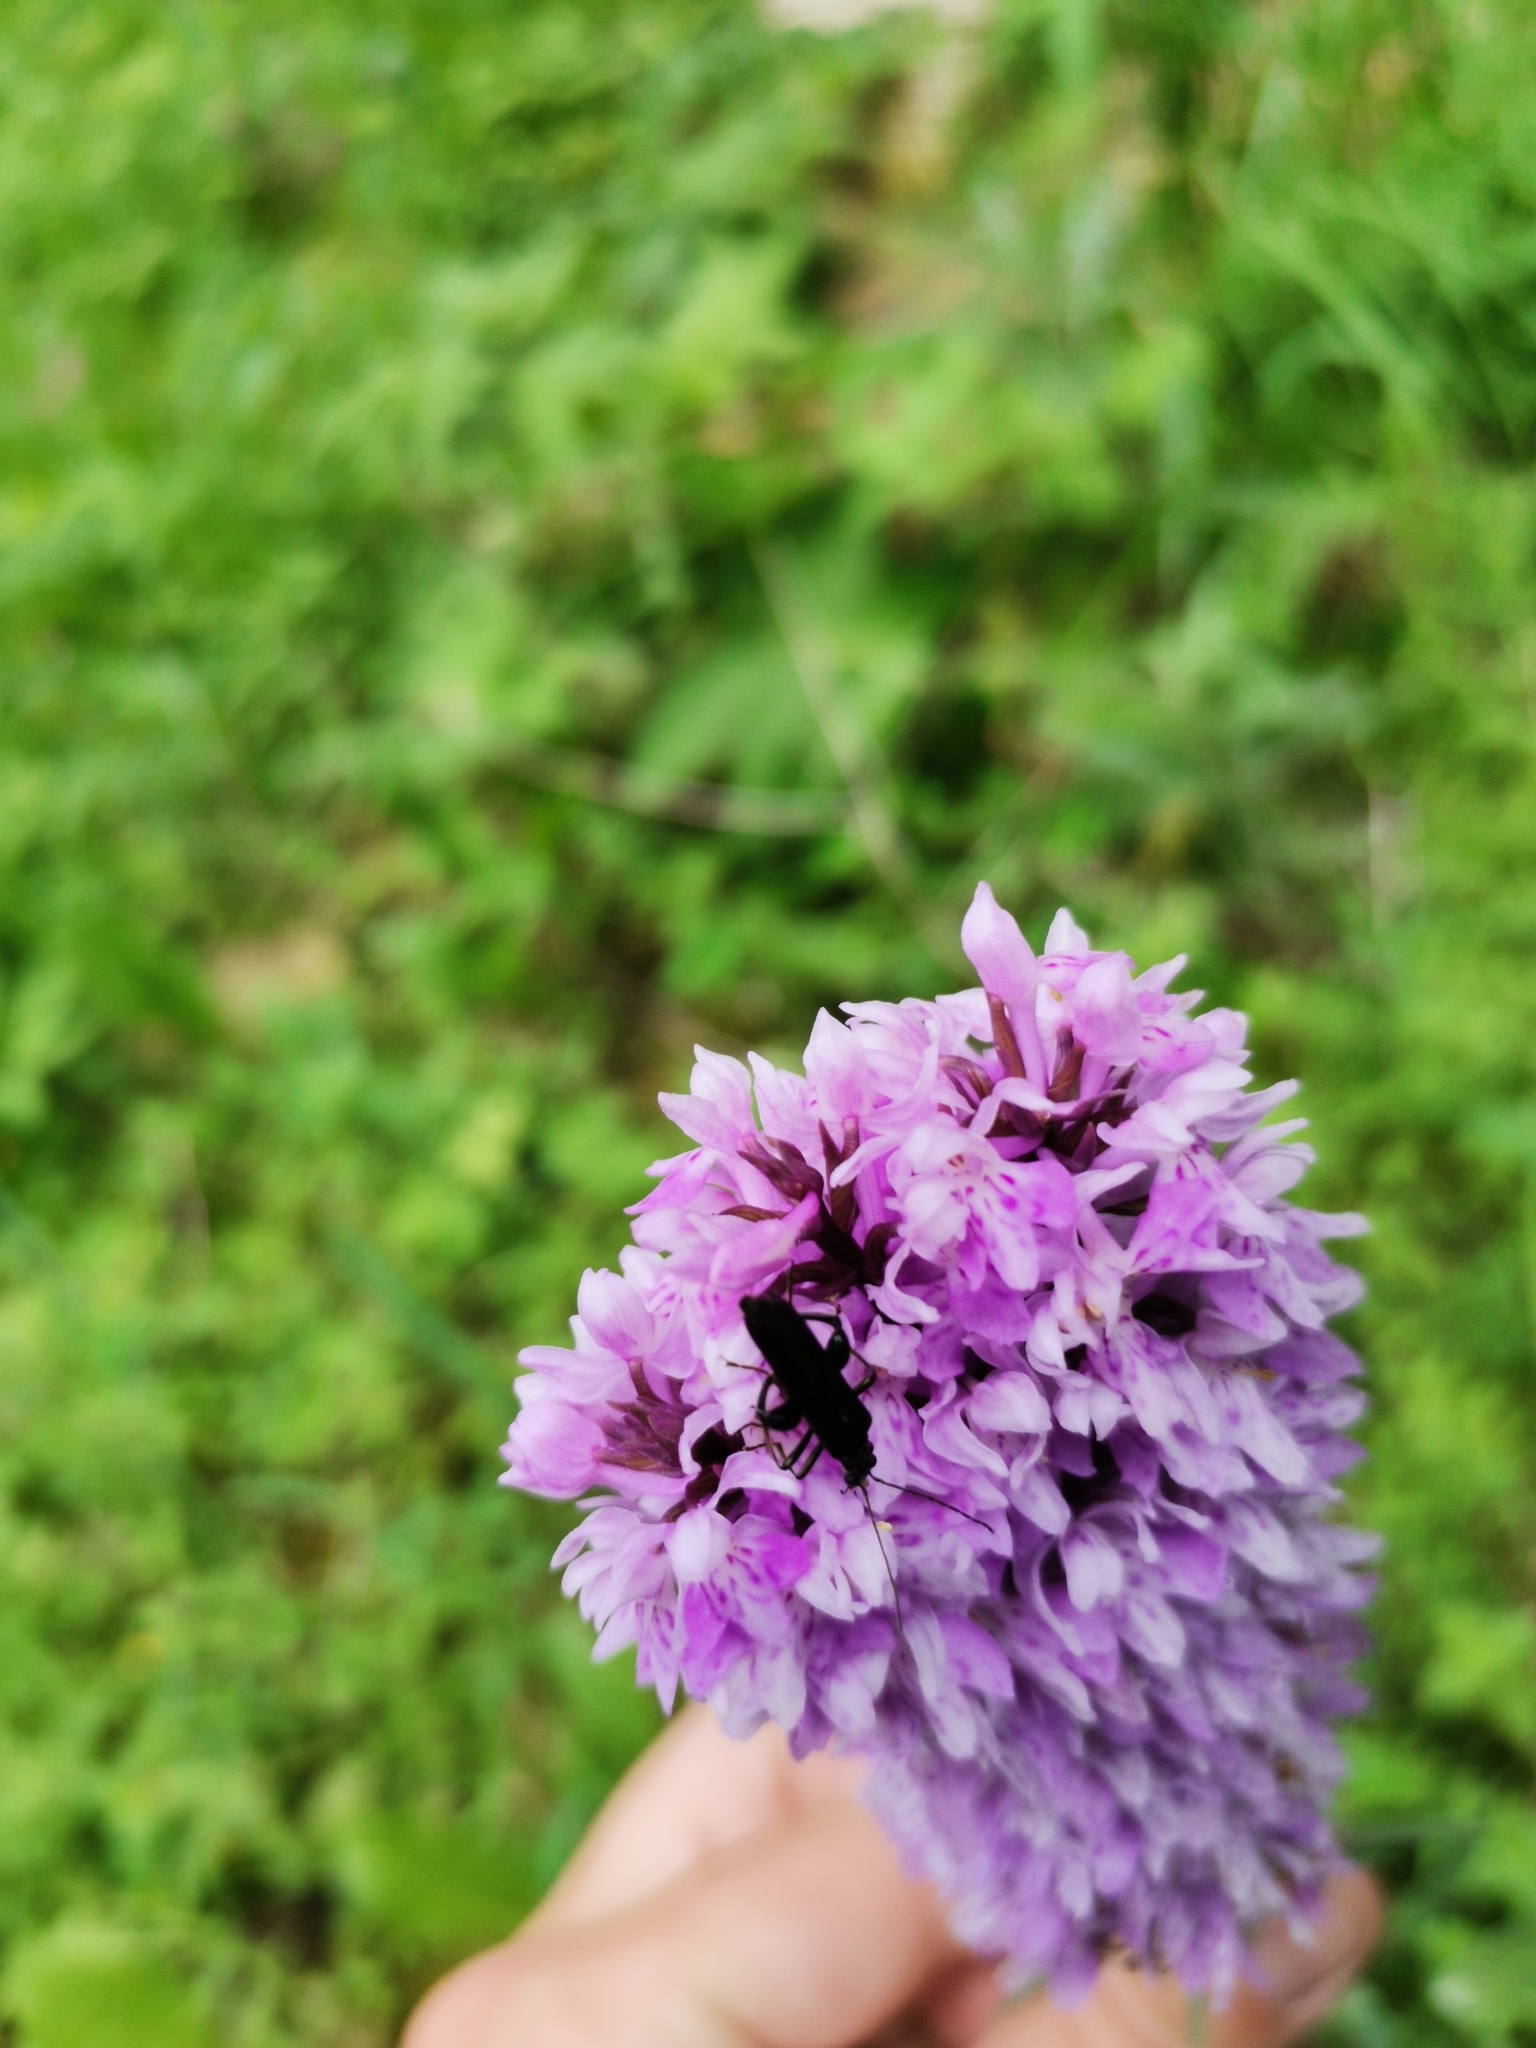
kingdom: Plantae
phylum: Tracheophyta
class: Liliopsida
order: Asparagales
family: Orchidaceae
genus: Dactylorhiza
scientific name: Dactylorhiza maculata
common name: Heath spotted-orchid
